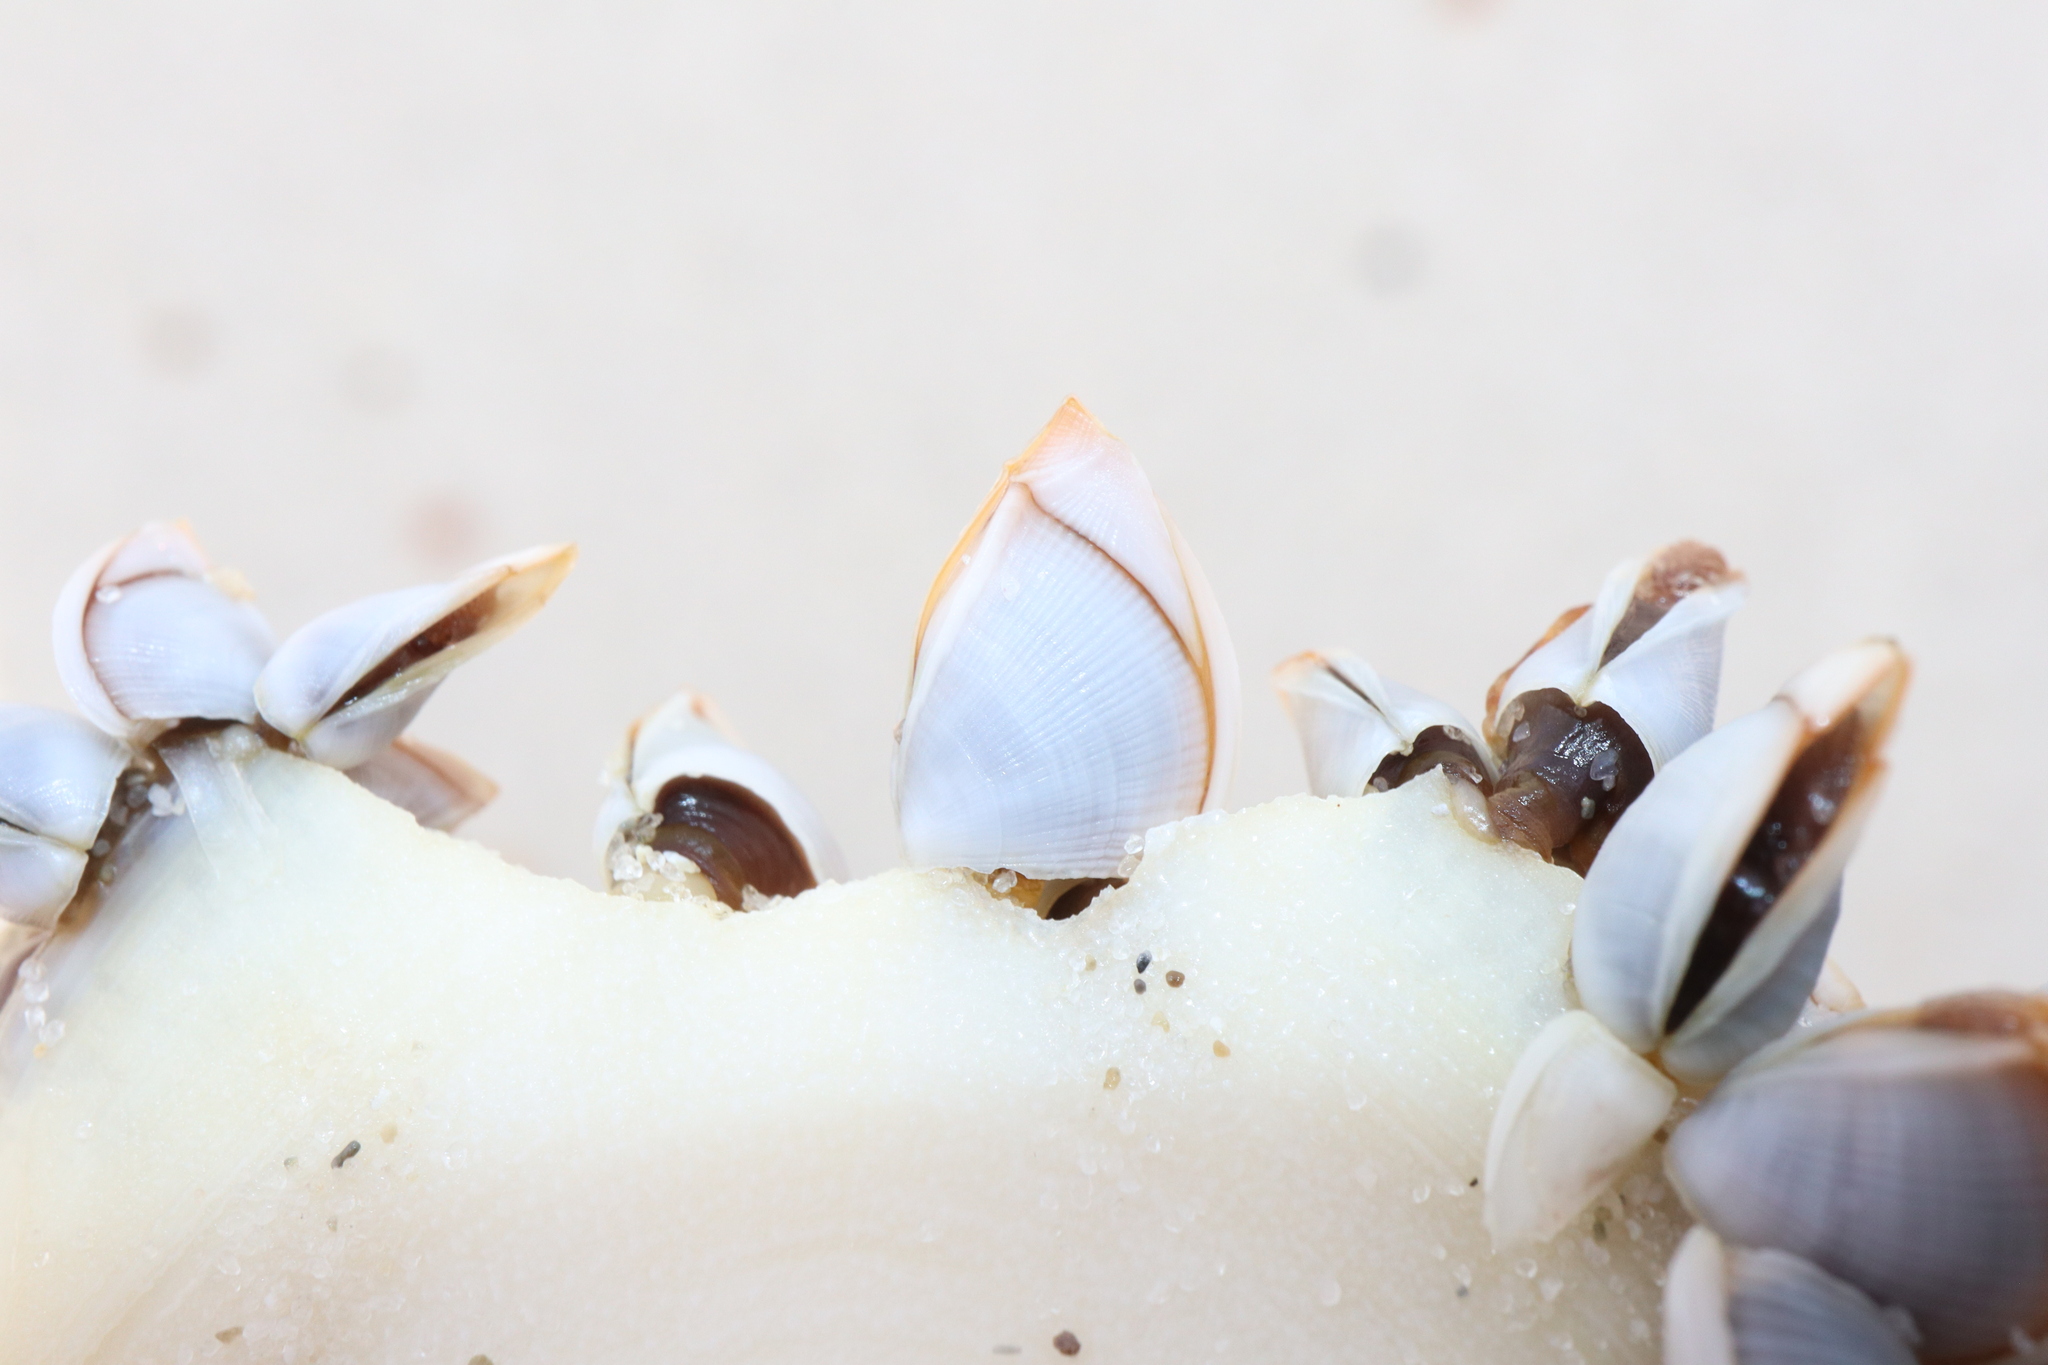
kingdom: Animalia
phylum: Arthropoda
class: Maxillopoda
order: Pedunculata
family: Lepadidae
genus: Lepas
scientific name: Lepas pectinata
